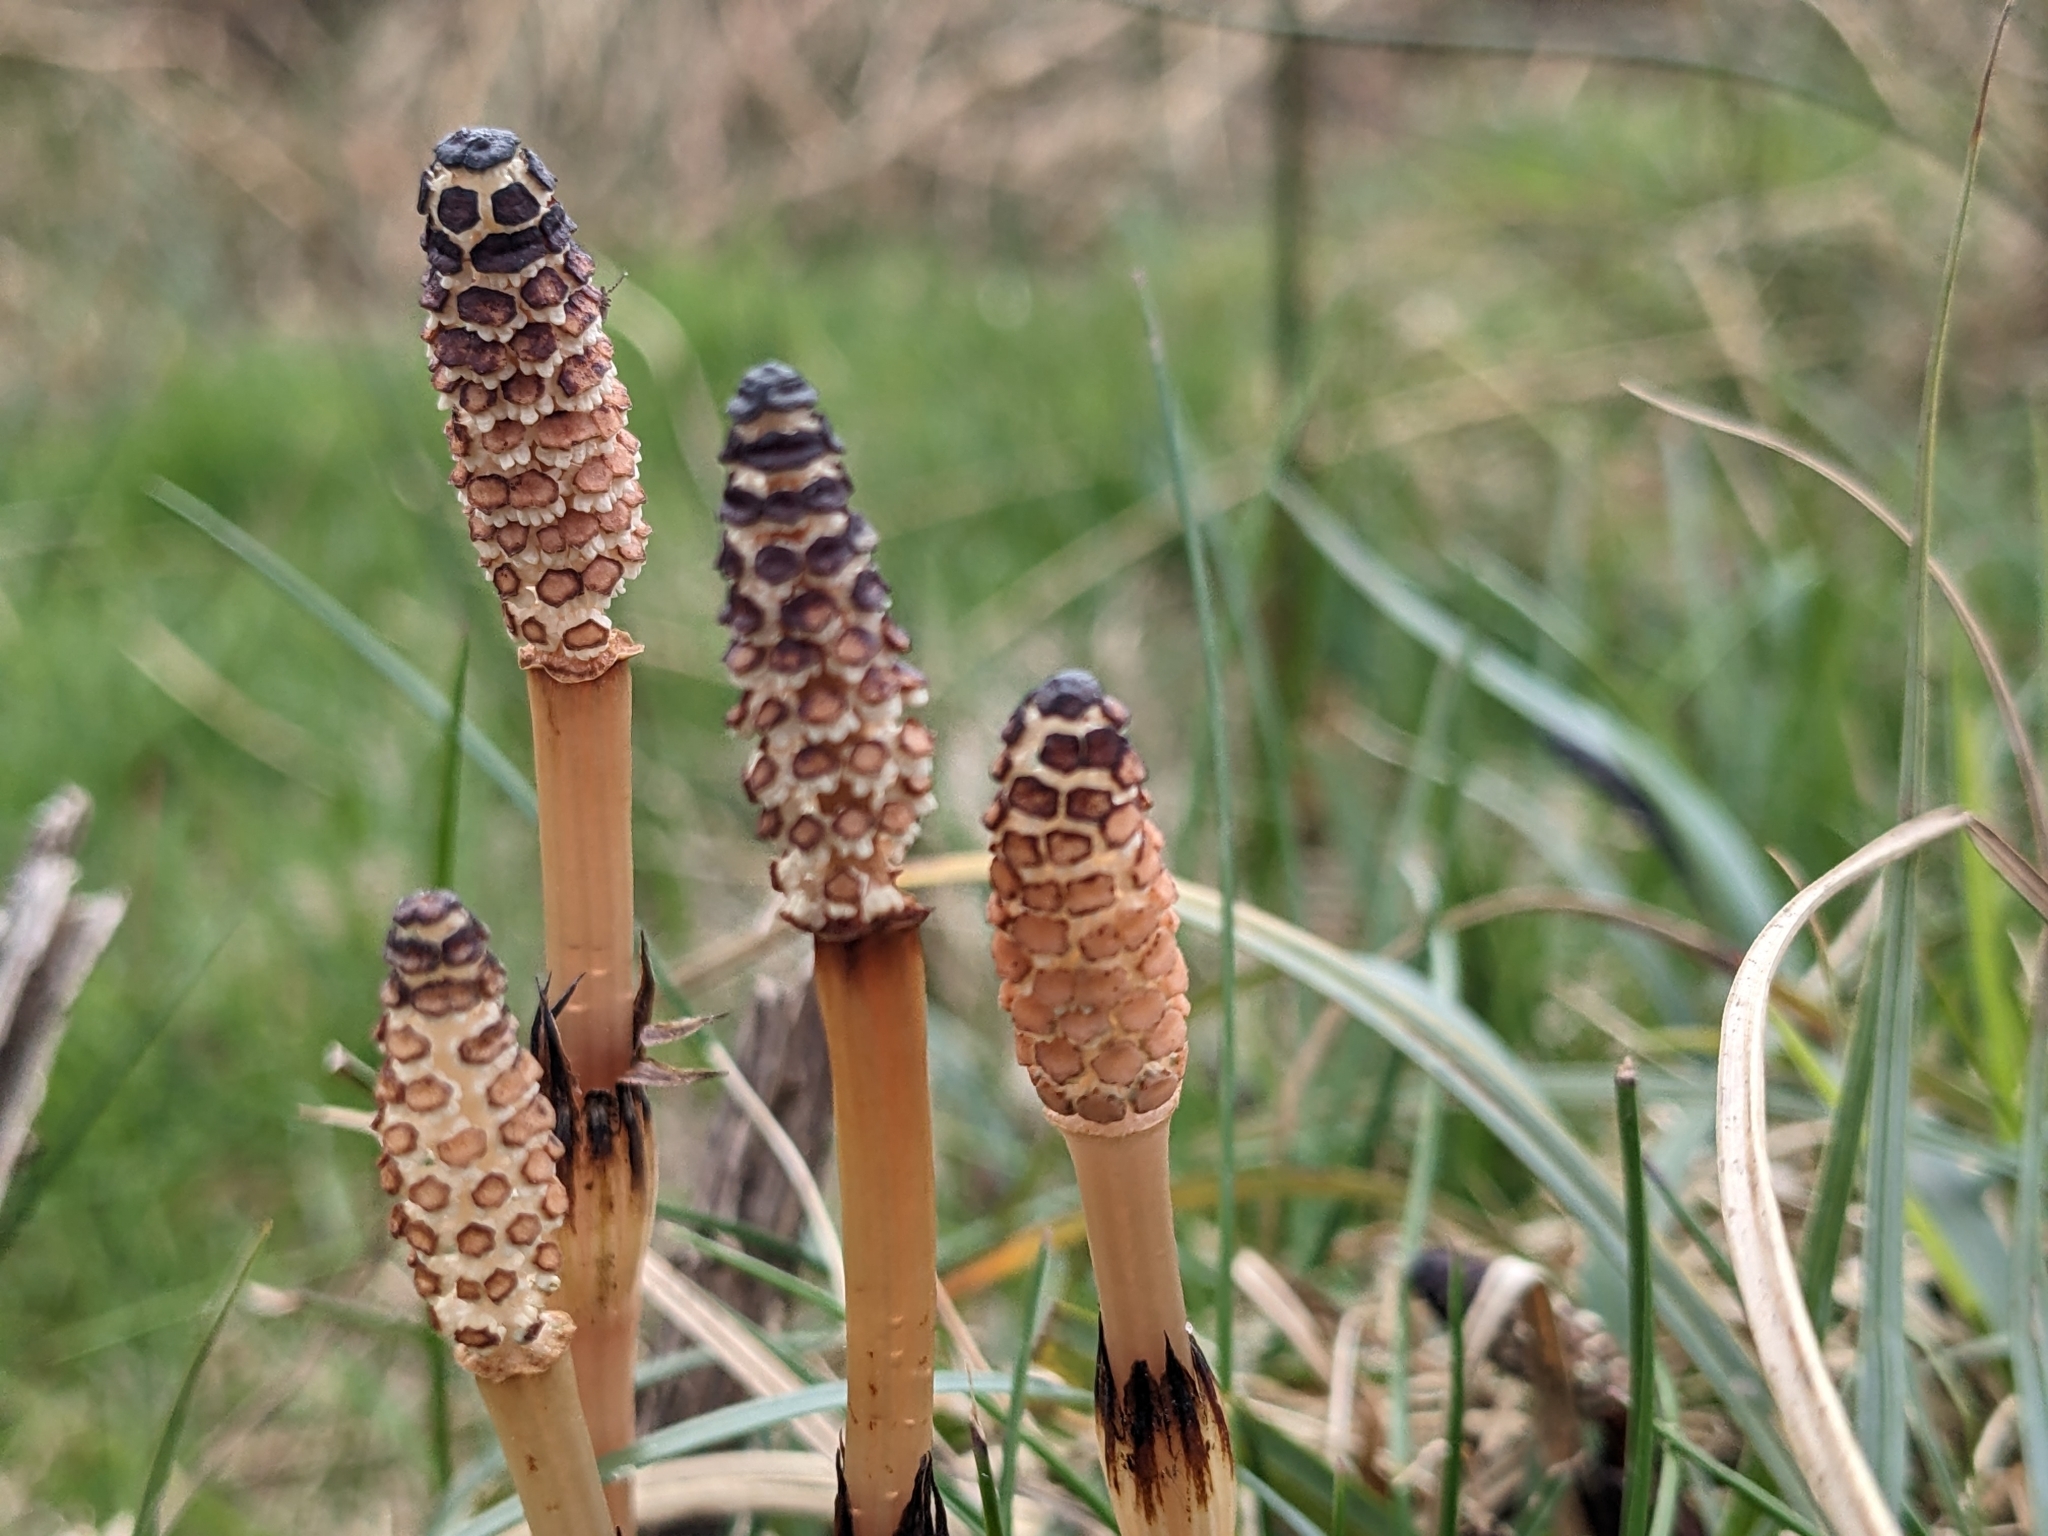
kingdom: Plantae
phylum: Tracheophyta
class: Polypodiopsida
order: Equisetales
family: Equisetaceae
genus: Equisetum
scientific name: Equisetum arvense
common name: Field horsetail
